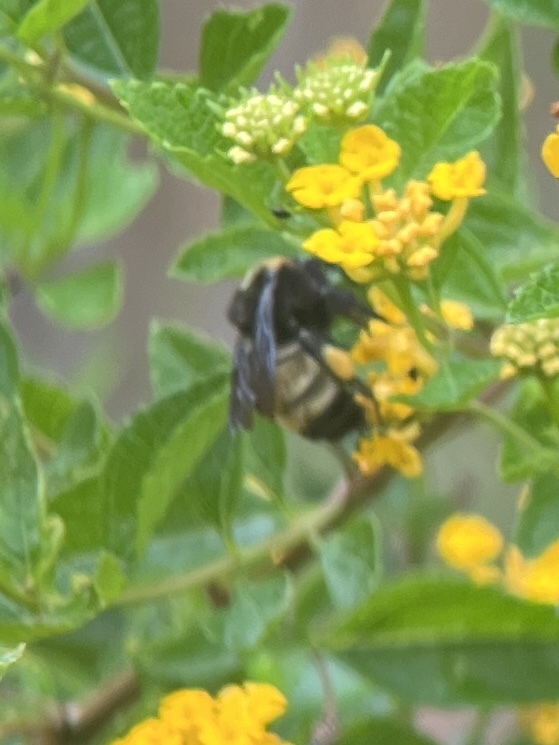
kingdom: Animalia
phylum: Arthropoda
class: Insecta
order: Hymenoptera
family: Apidae
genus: Bombus
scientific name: Bombus pensylvanicus
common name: Bumble bee
